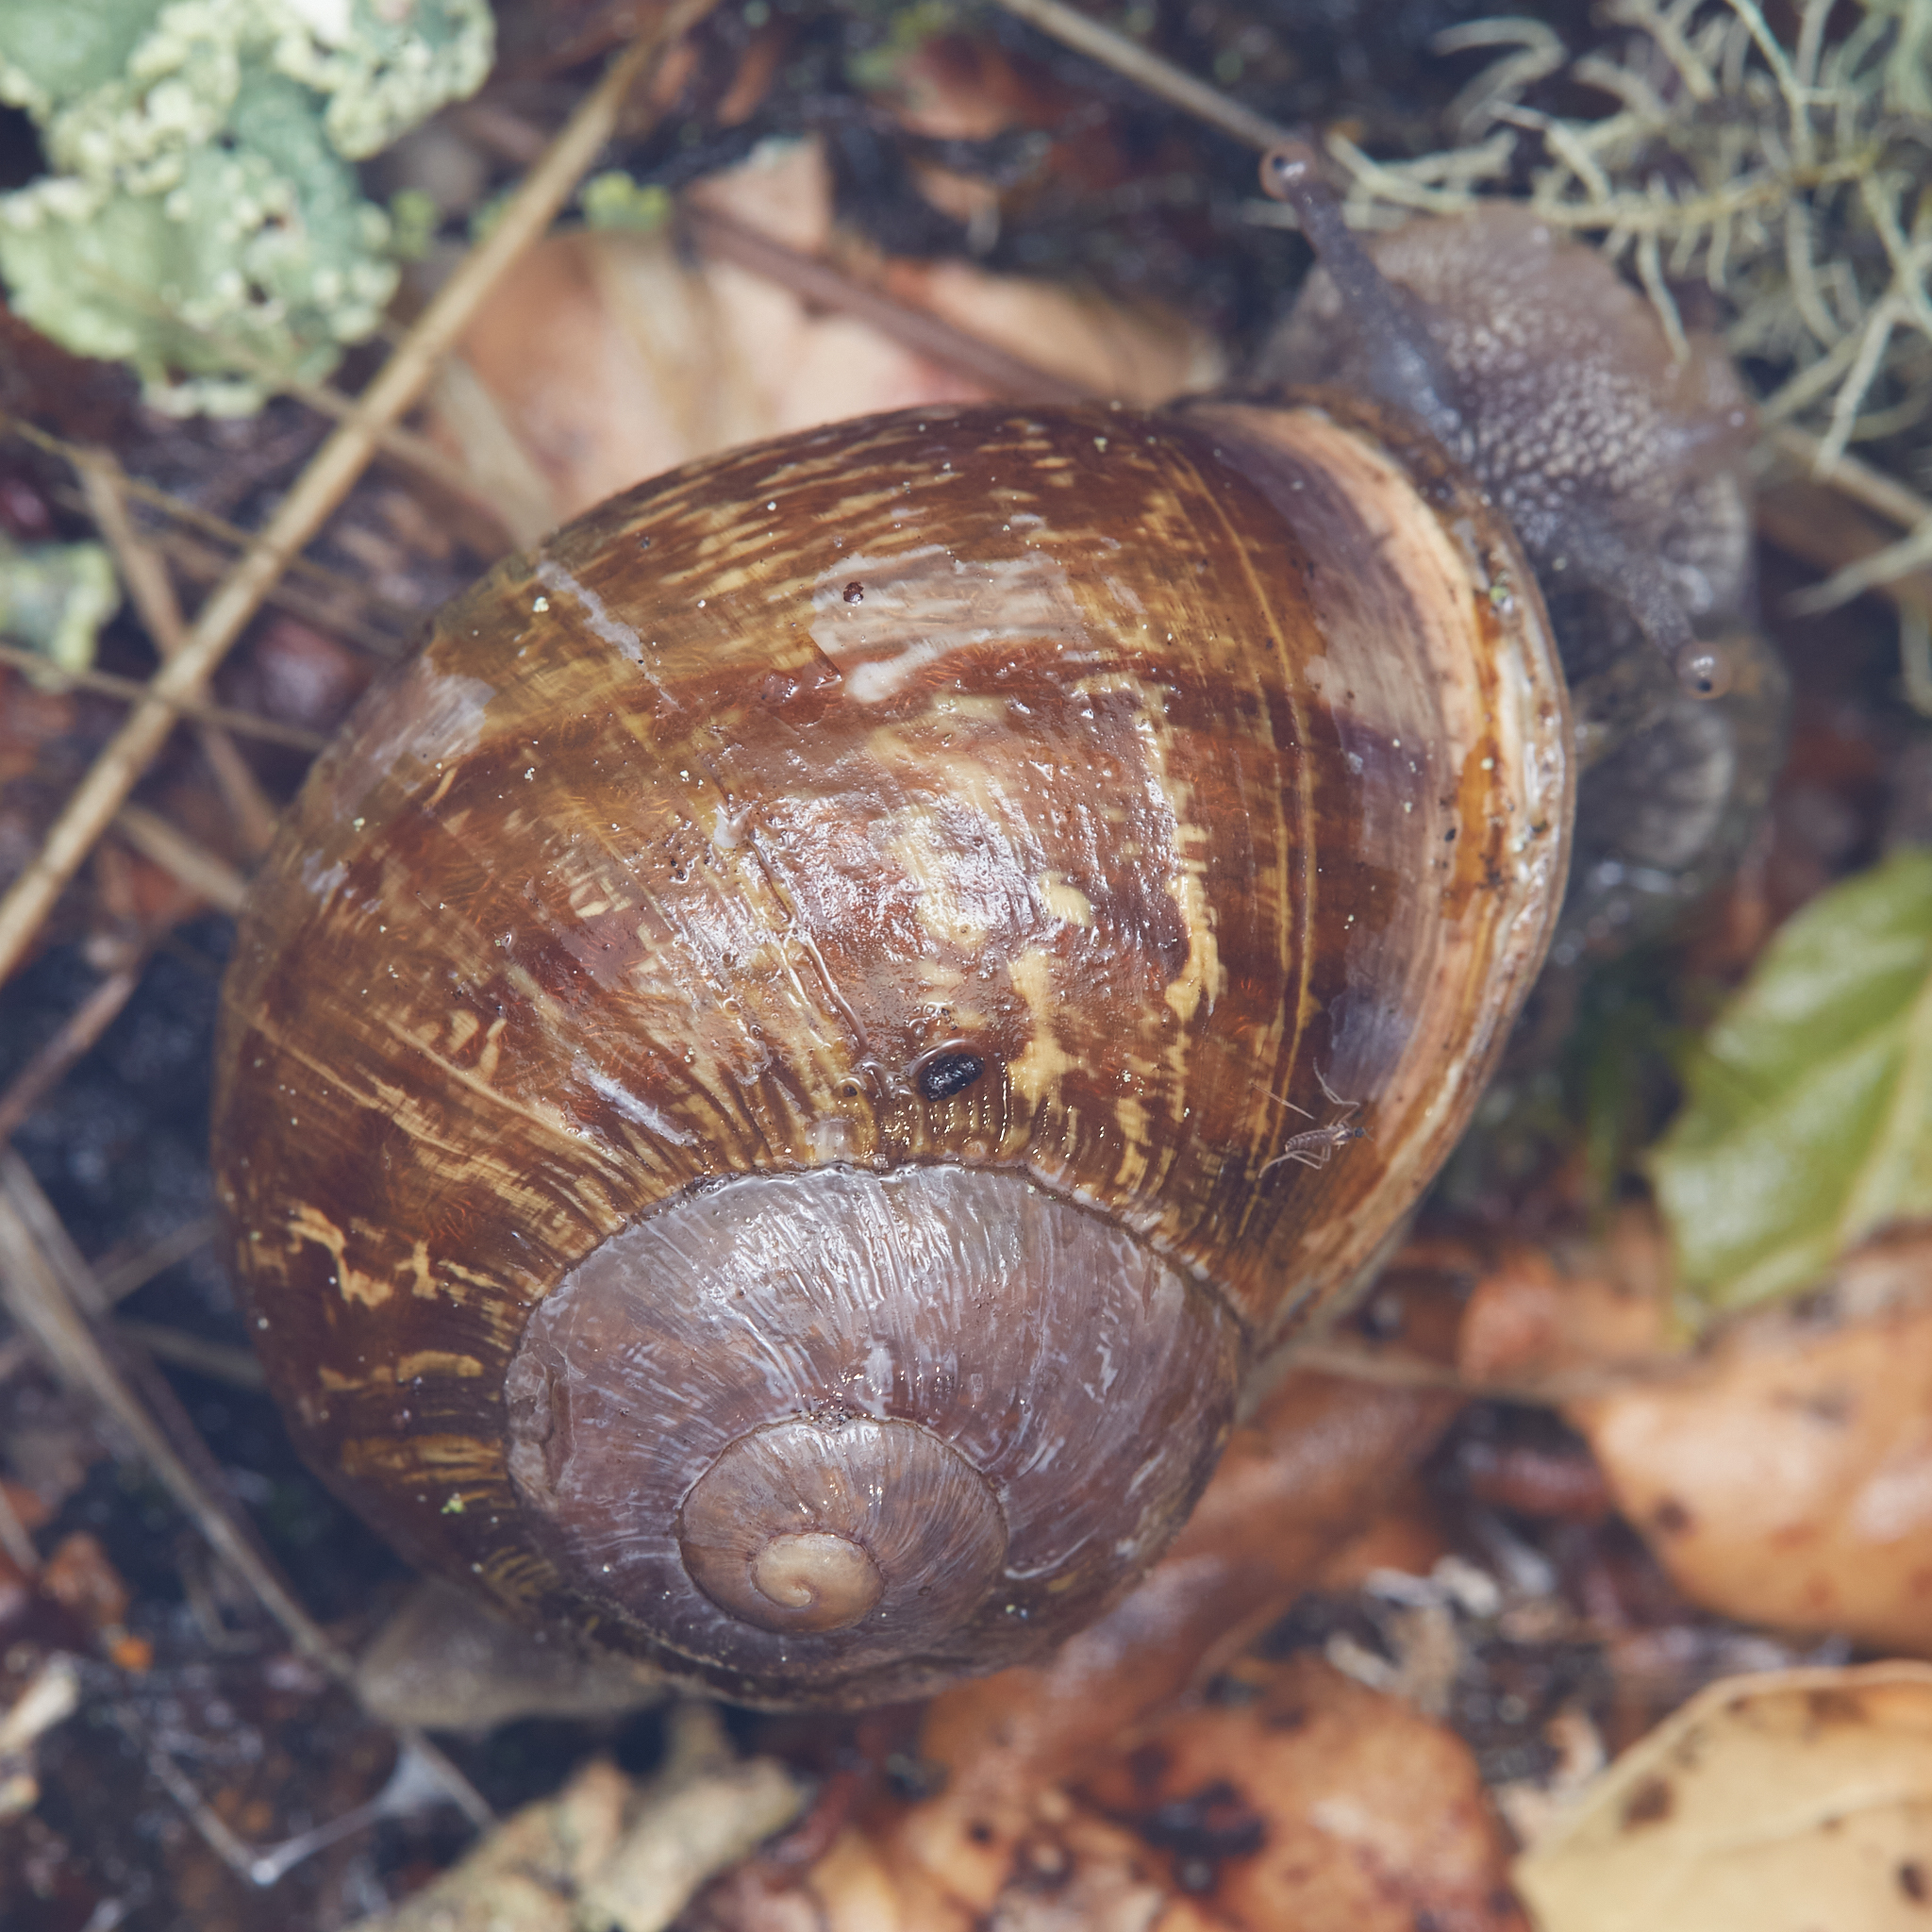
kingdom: Animalia
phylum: Mollusca
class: Gastropoda
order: Stylommatophora
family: Helicidae
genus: Cornu
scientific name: Cornu aspersum
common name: Brown garden snail
